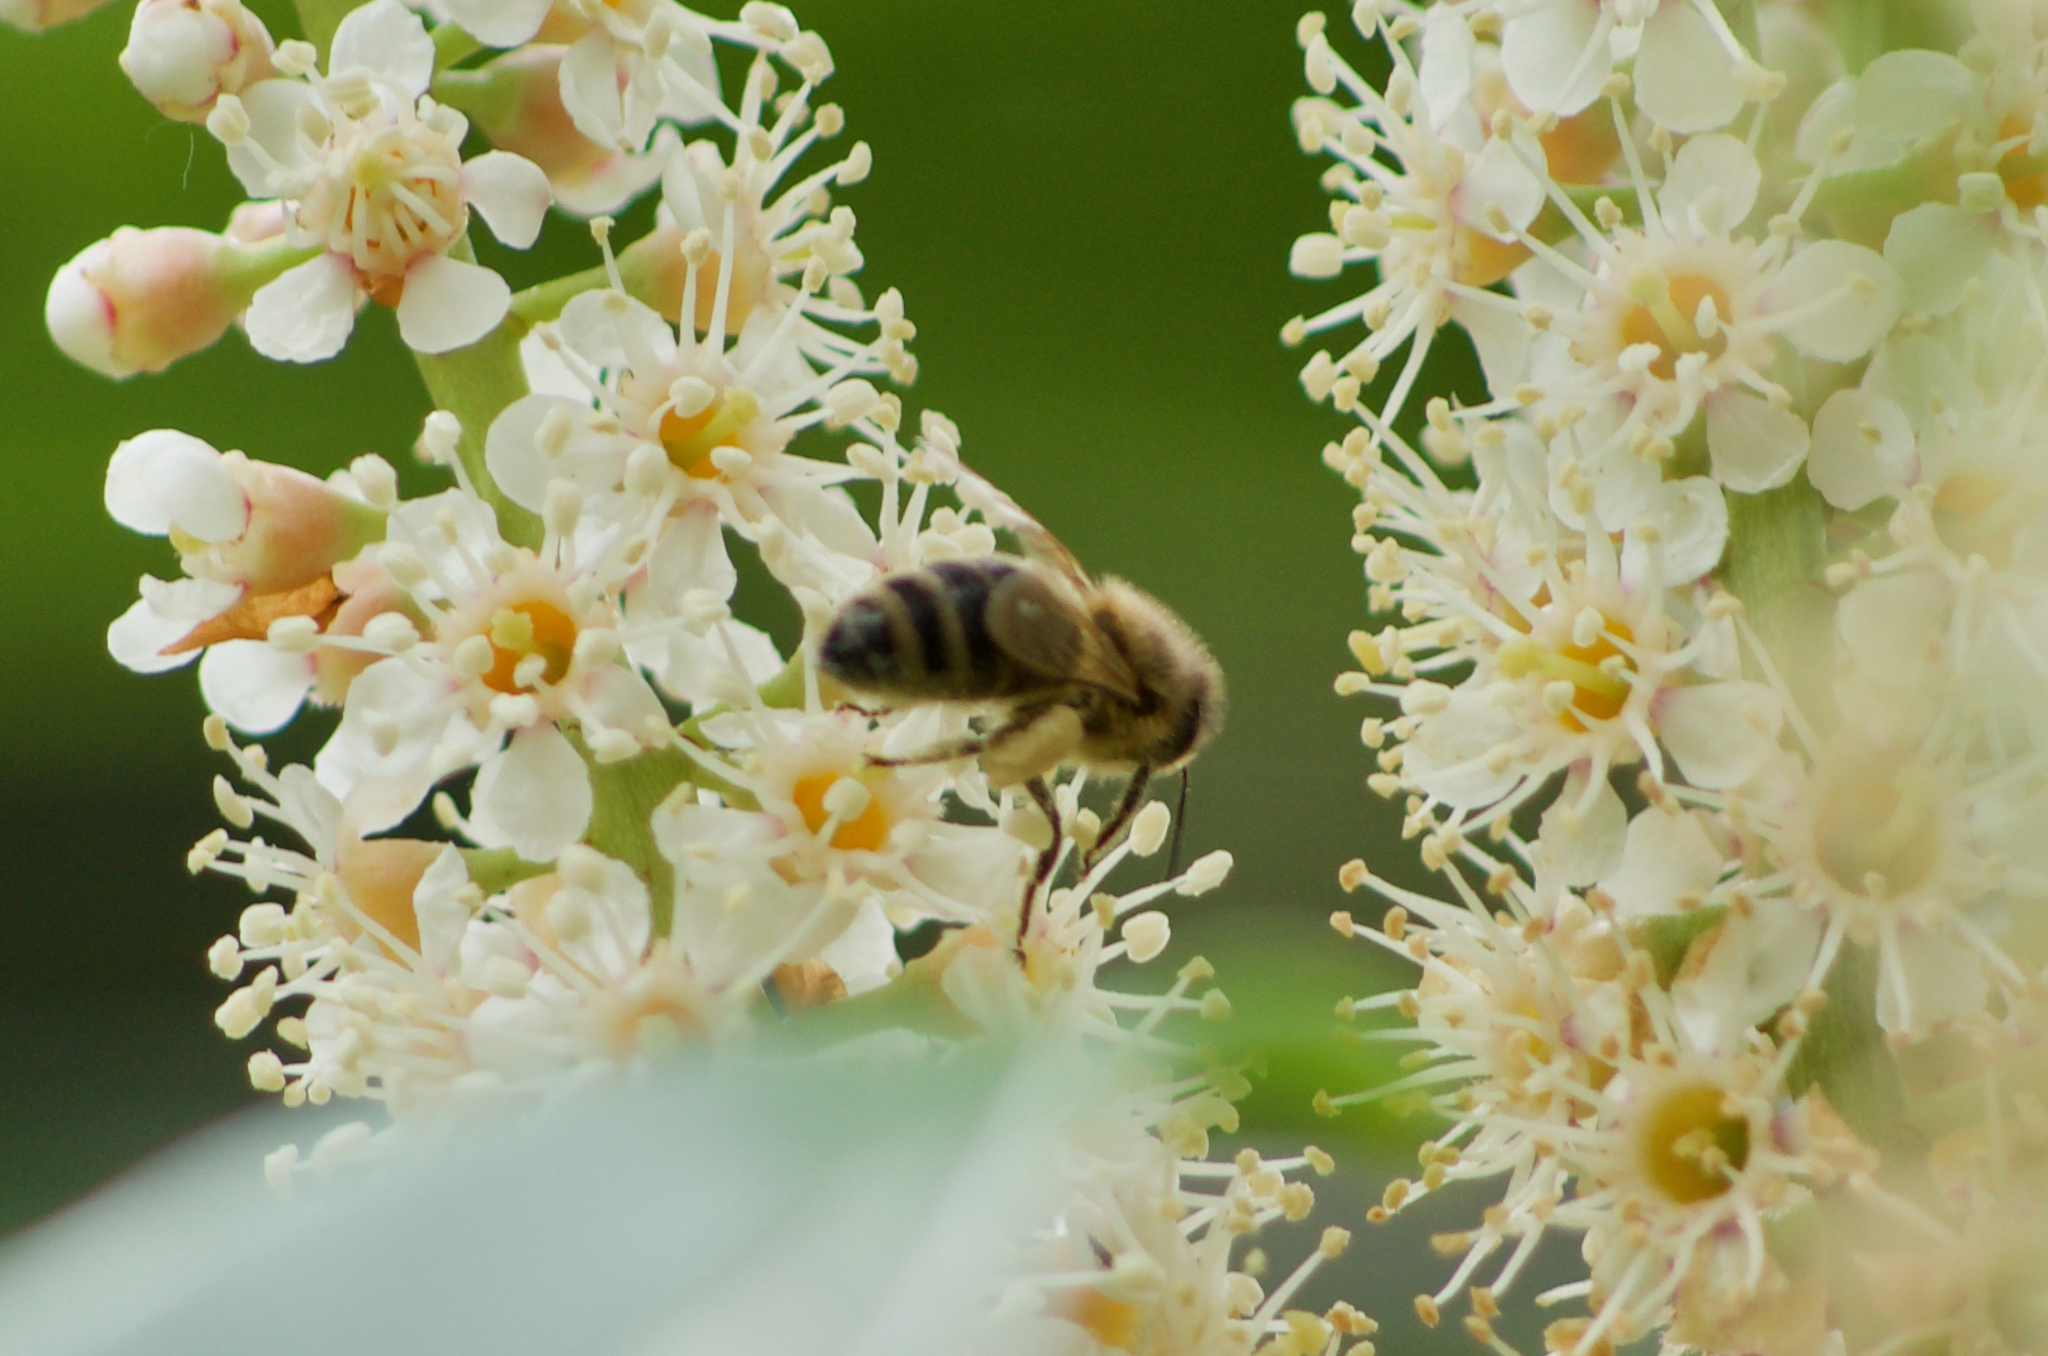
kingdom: Animalia
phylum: Arthropoda
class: Insecta
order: Hymenoptera
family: Apidae
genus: Apis
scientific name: Apis mellifera
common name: Honey bee
